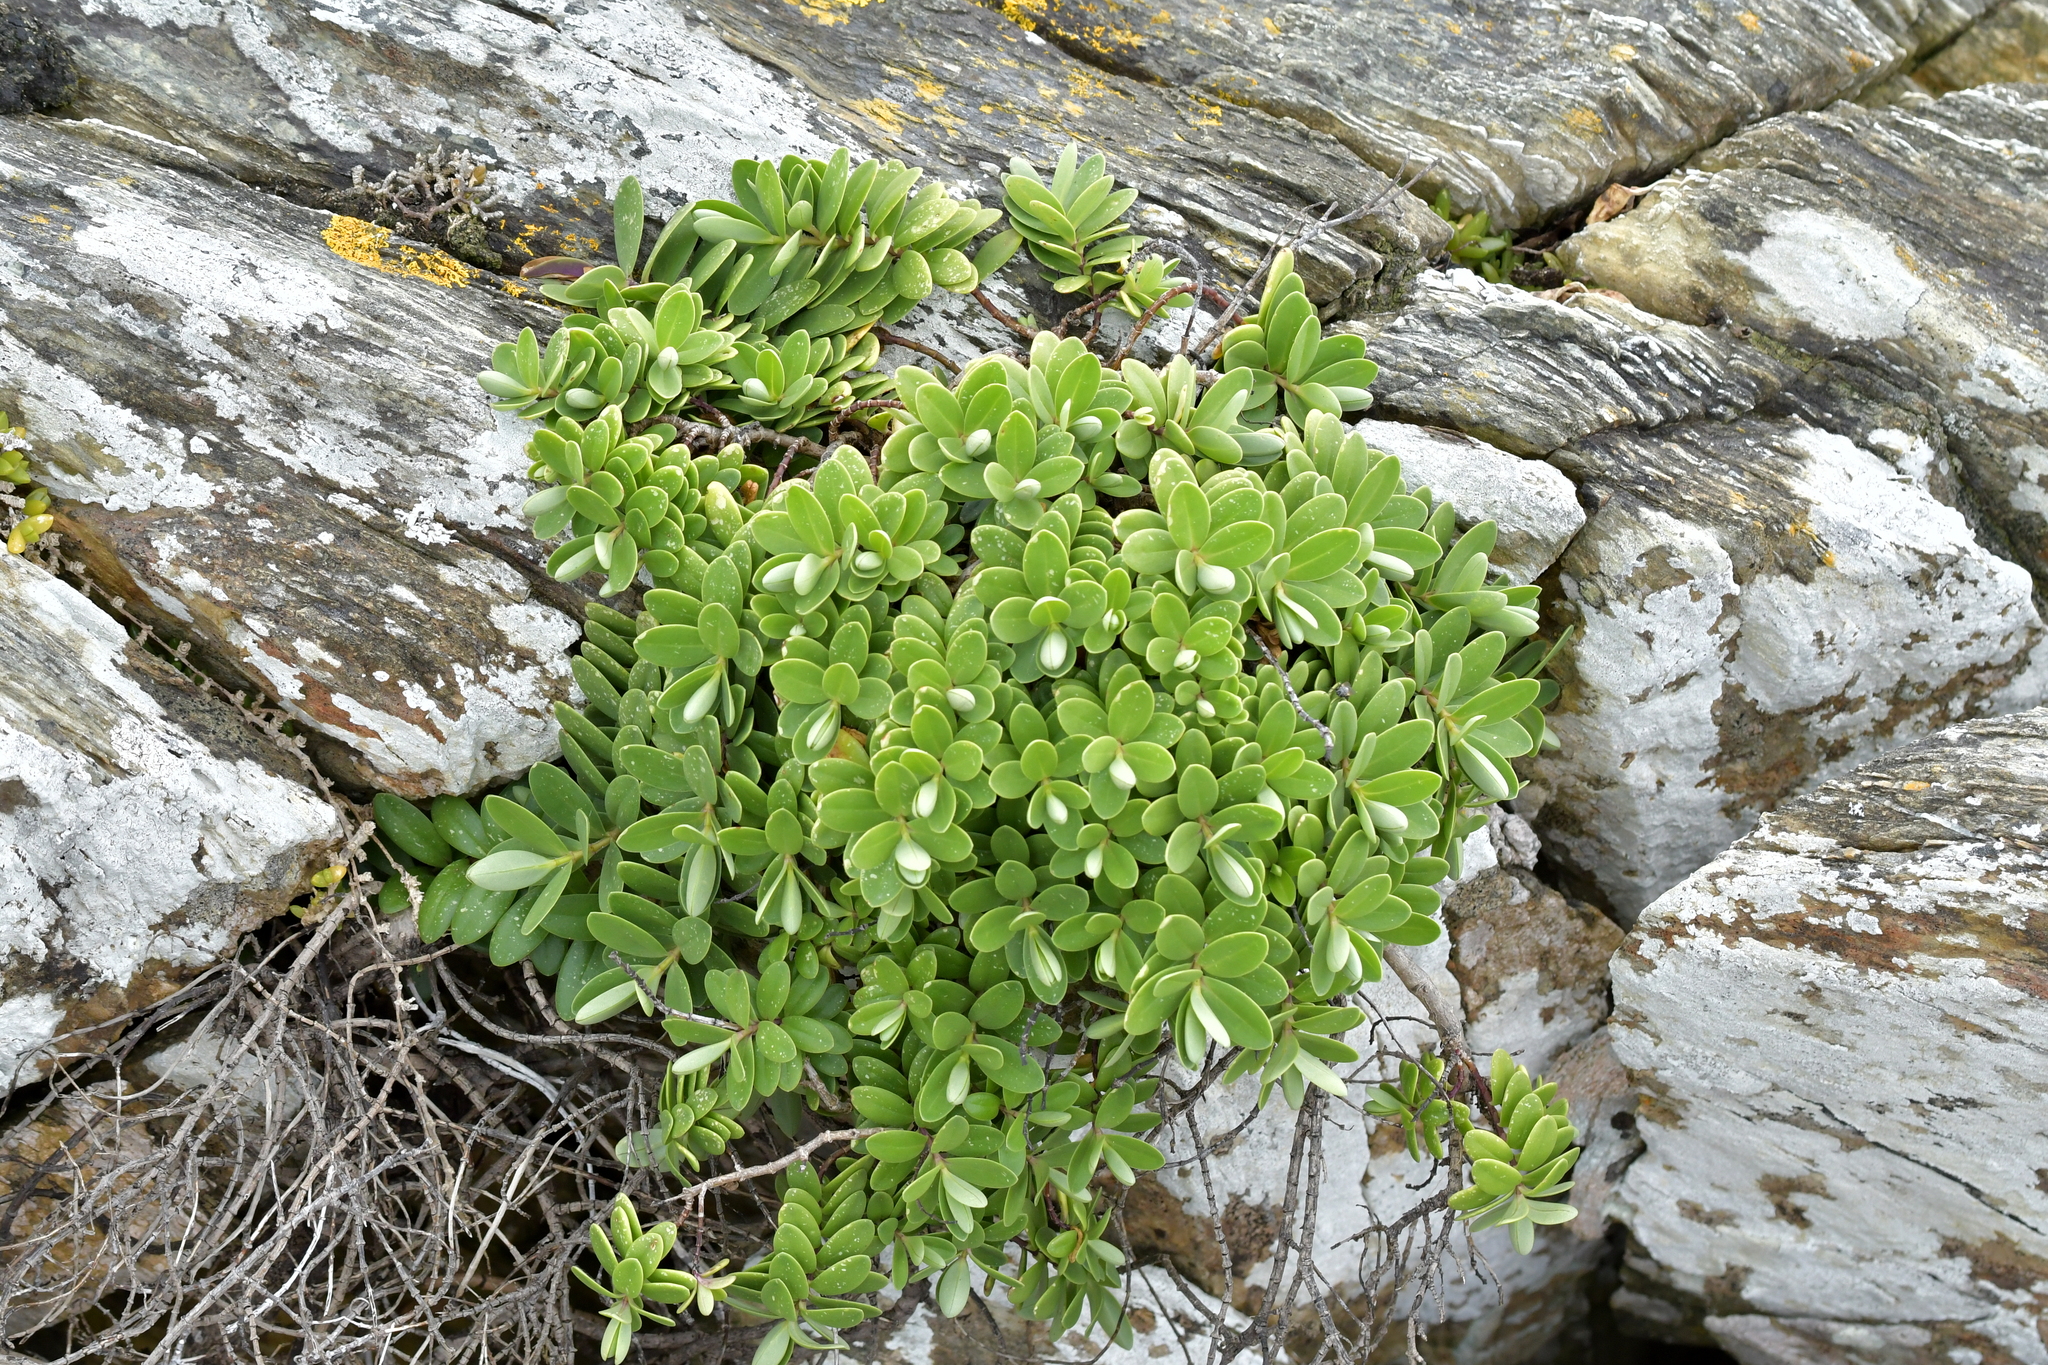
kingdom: Plantae
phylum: Tracheophyta
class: Magnoliopsida
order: Lamiales
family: Plantaginaceae
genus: Veronica
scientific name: Veronica chathamica
